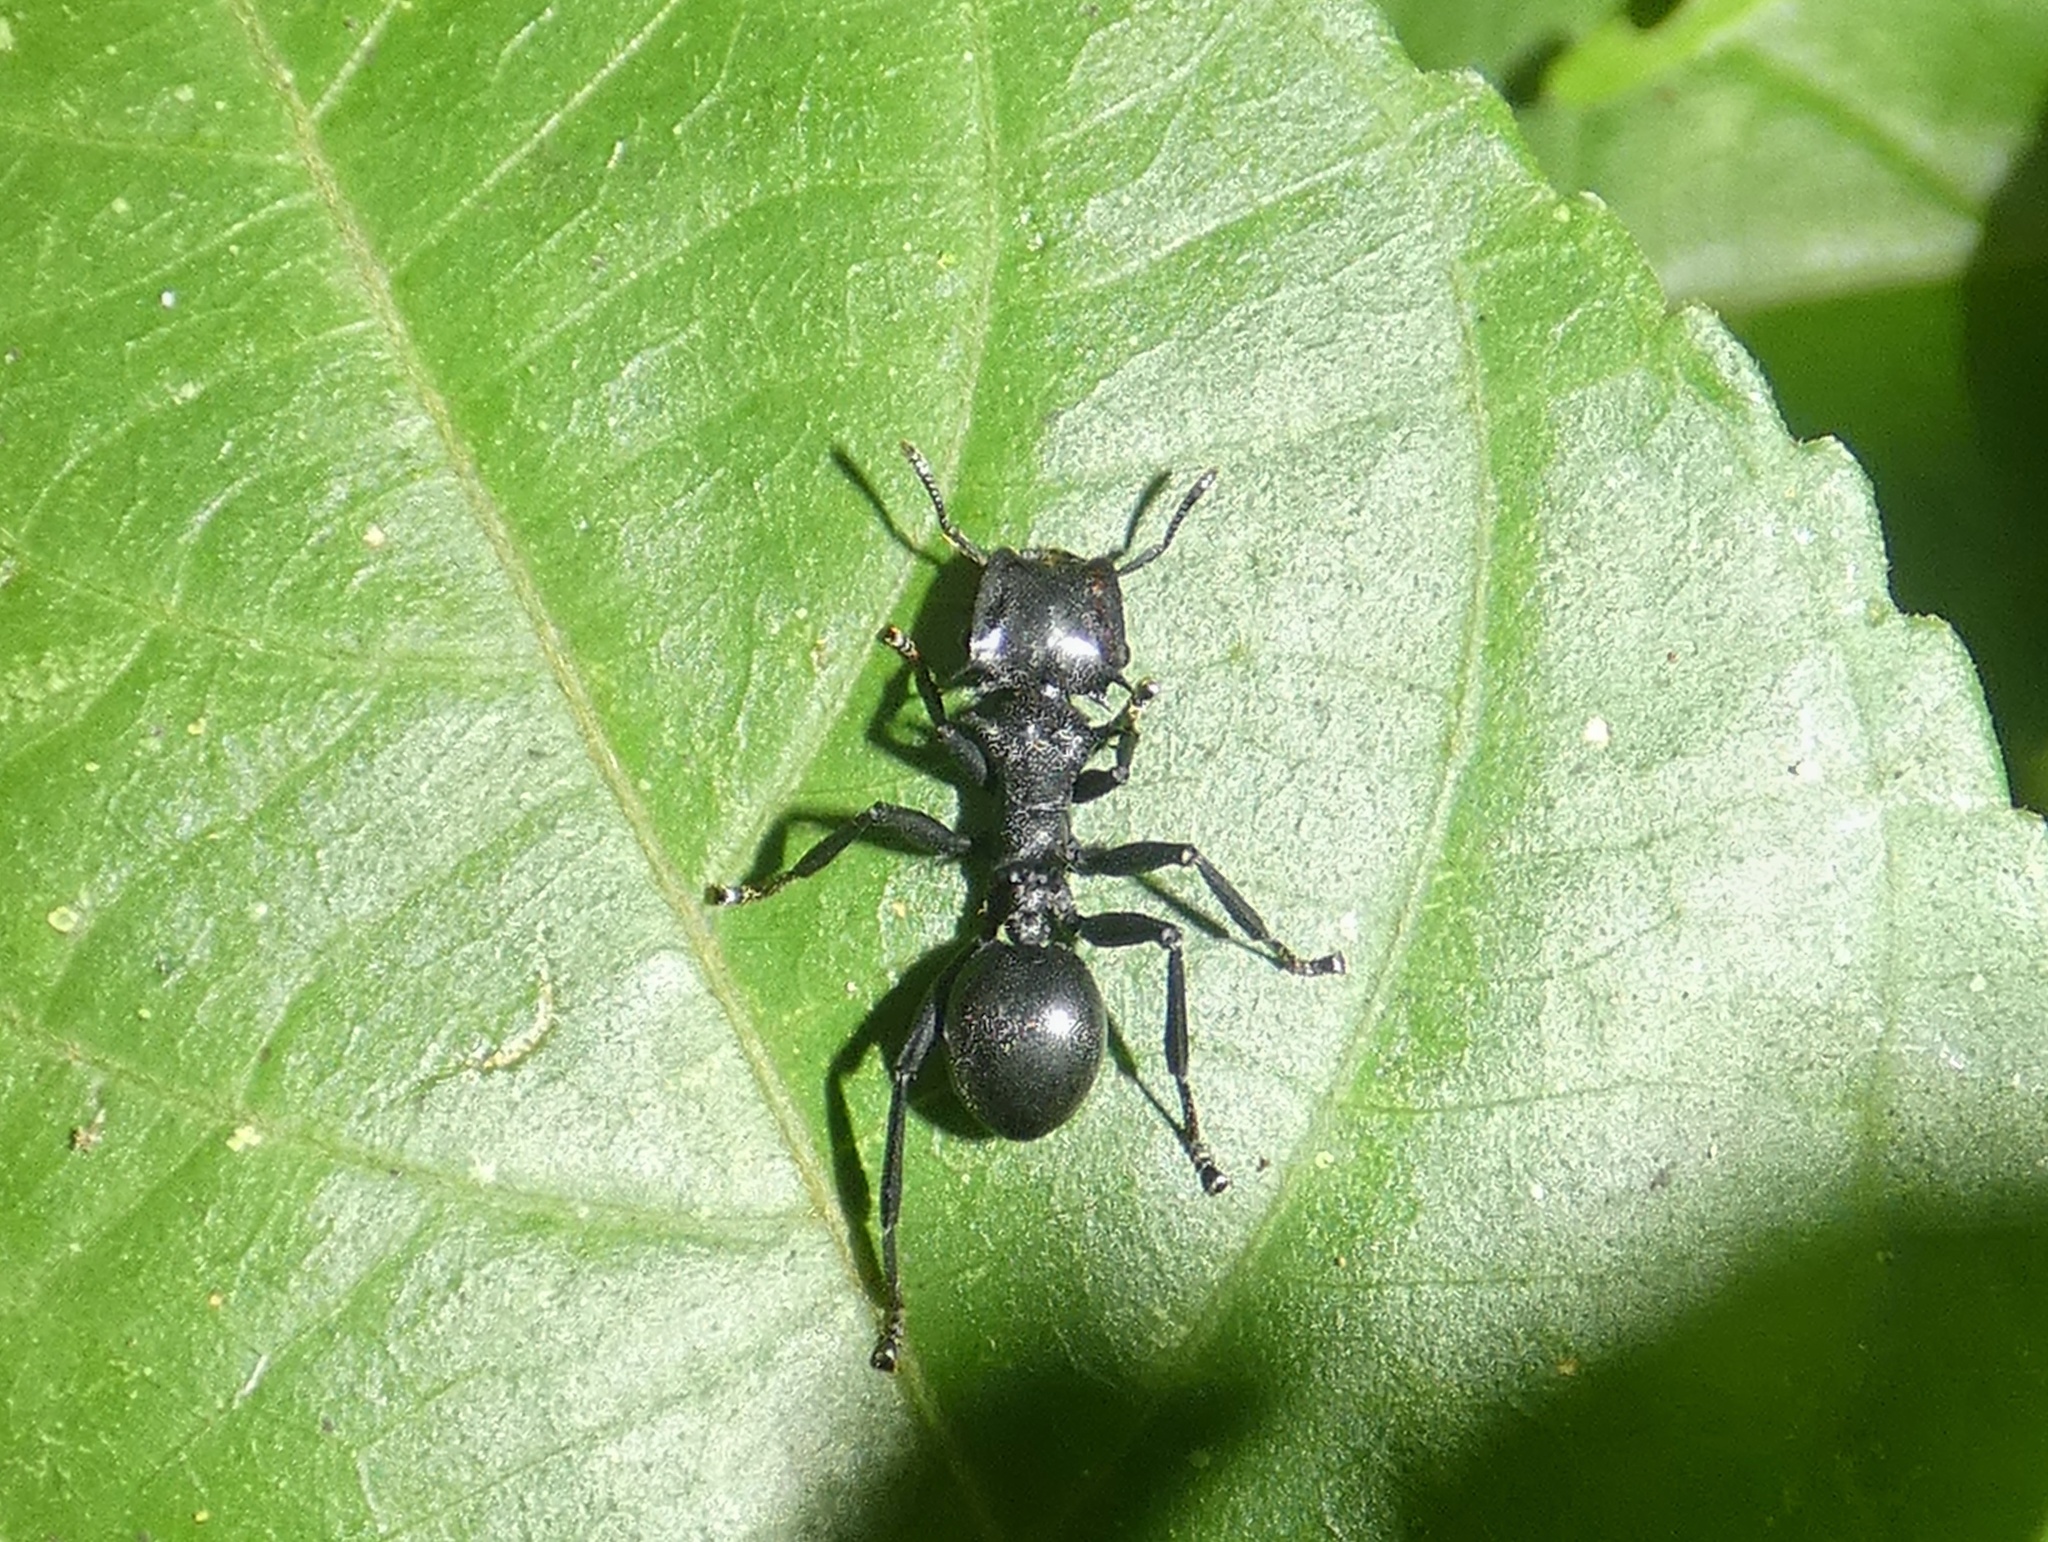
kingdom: Animalia
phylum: Arthropoda
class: Insecta
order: Hymenoptera
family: Formicidae
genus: Cephalotes
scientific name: Cephalotes atratus
